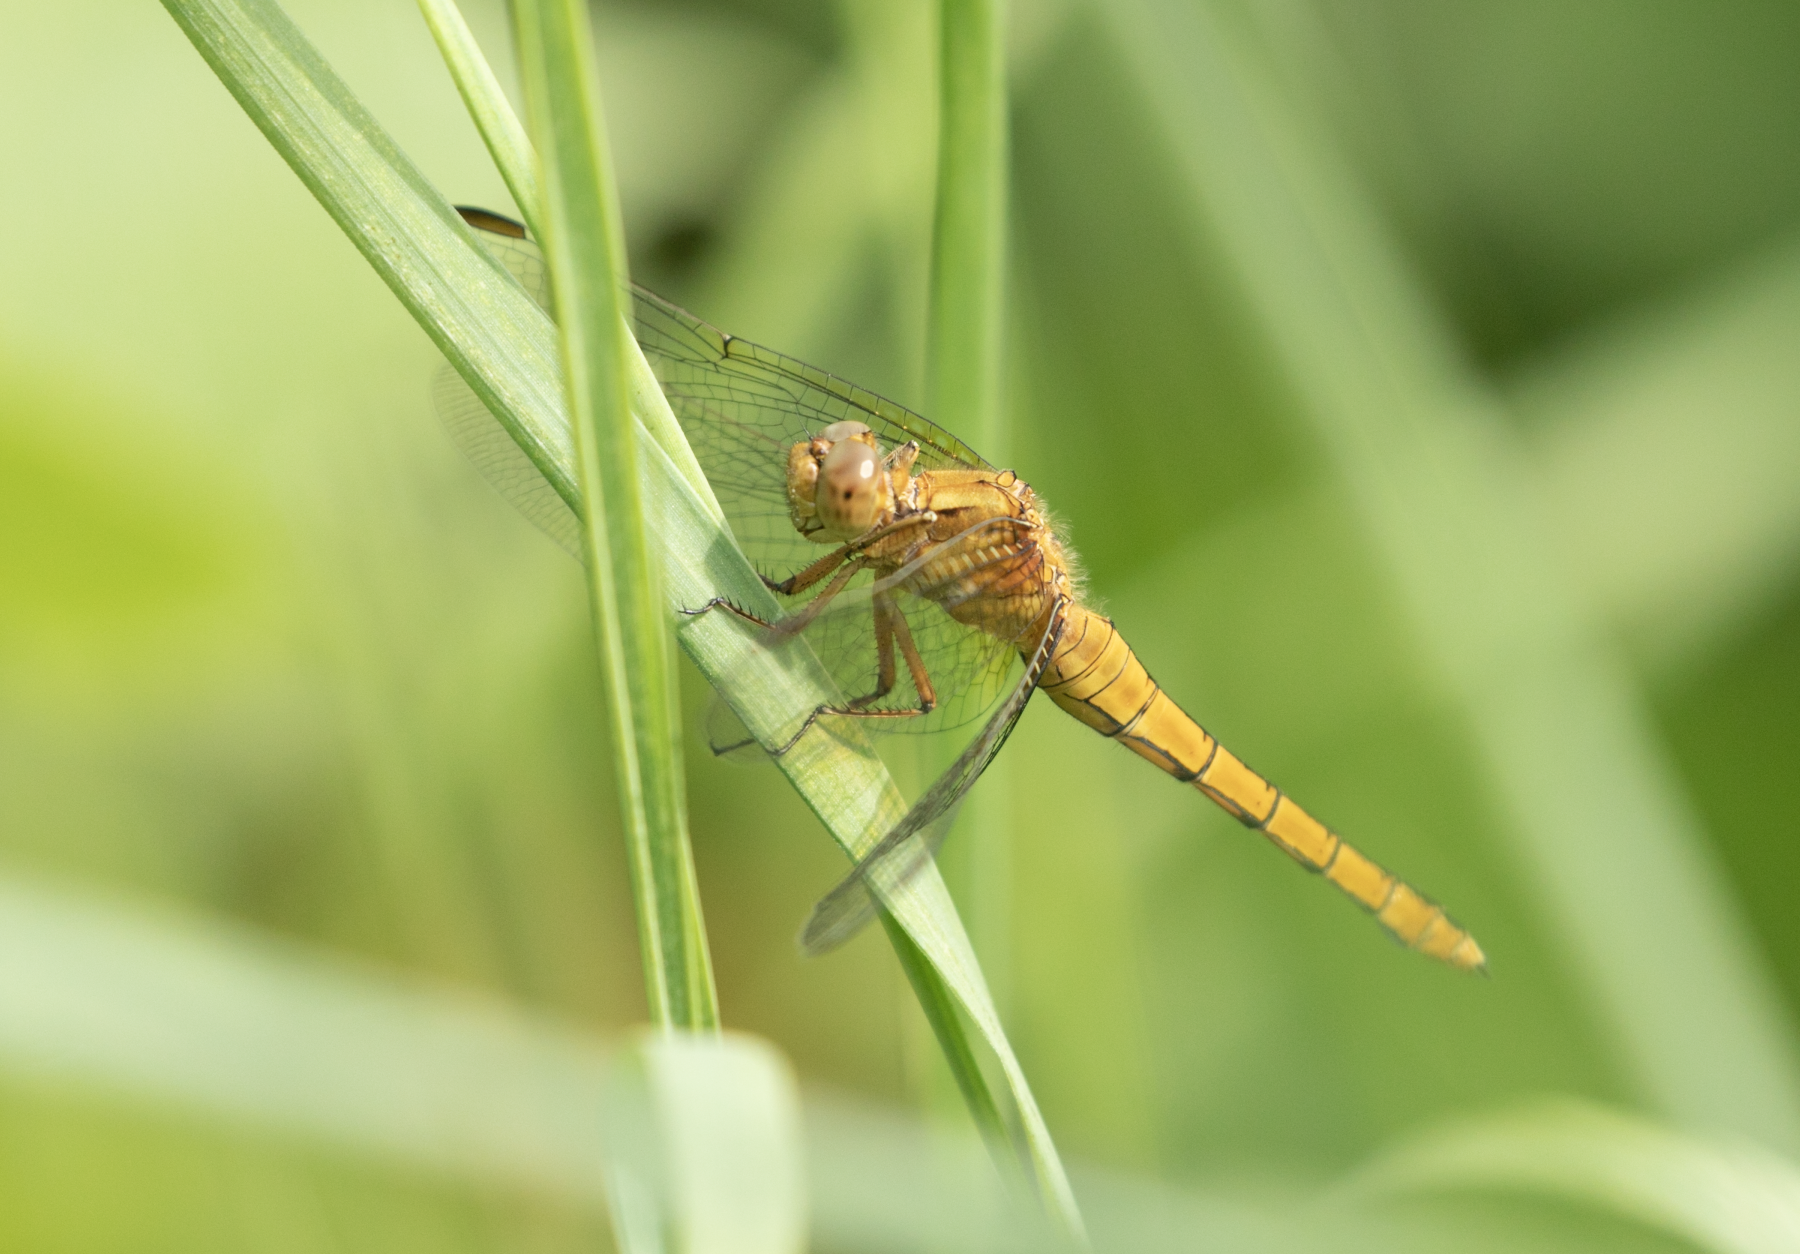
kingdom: Animalia
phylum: Arthropoda
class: Insecta
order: Odonata
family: Libellulidae
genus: Orthetrum
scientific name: Orthetrum coerulescens
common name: Keeled skimmer
